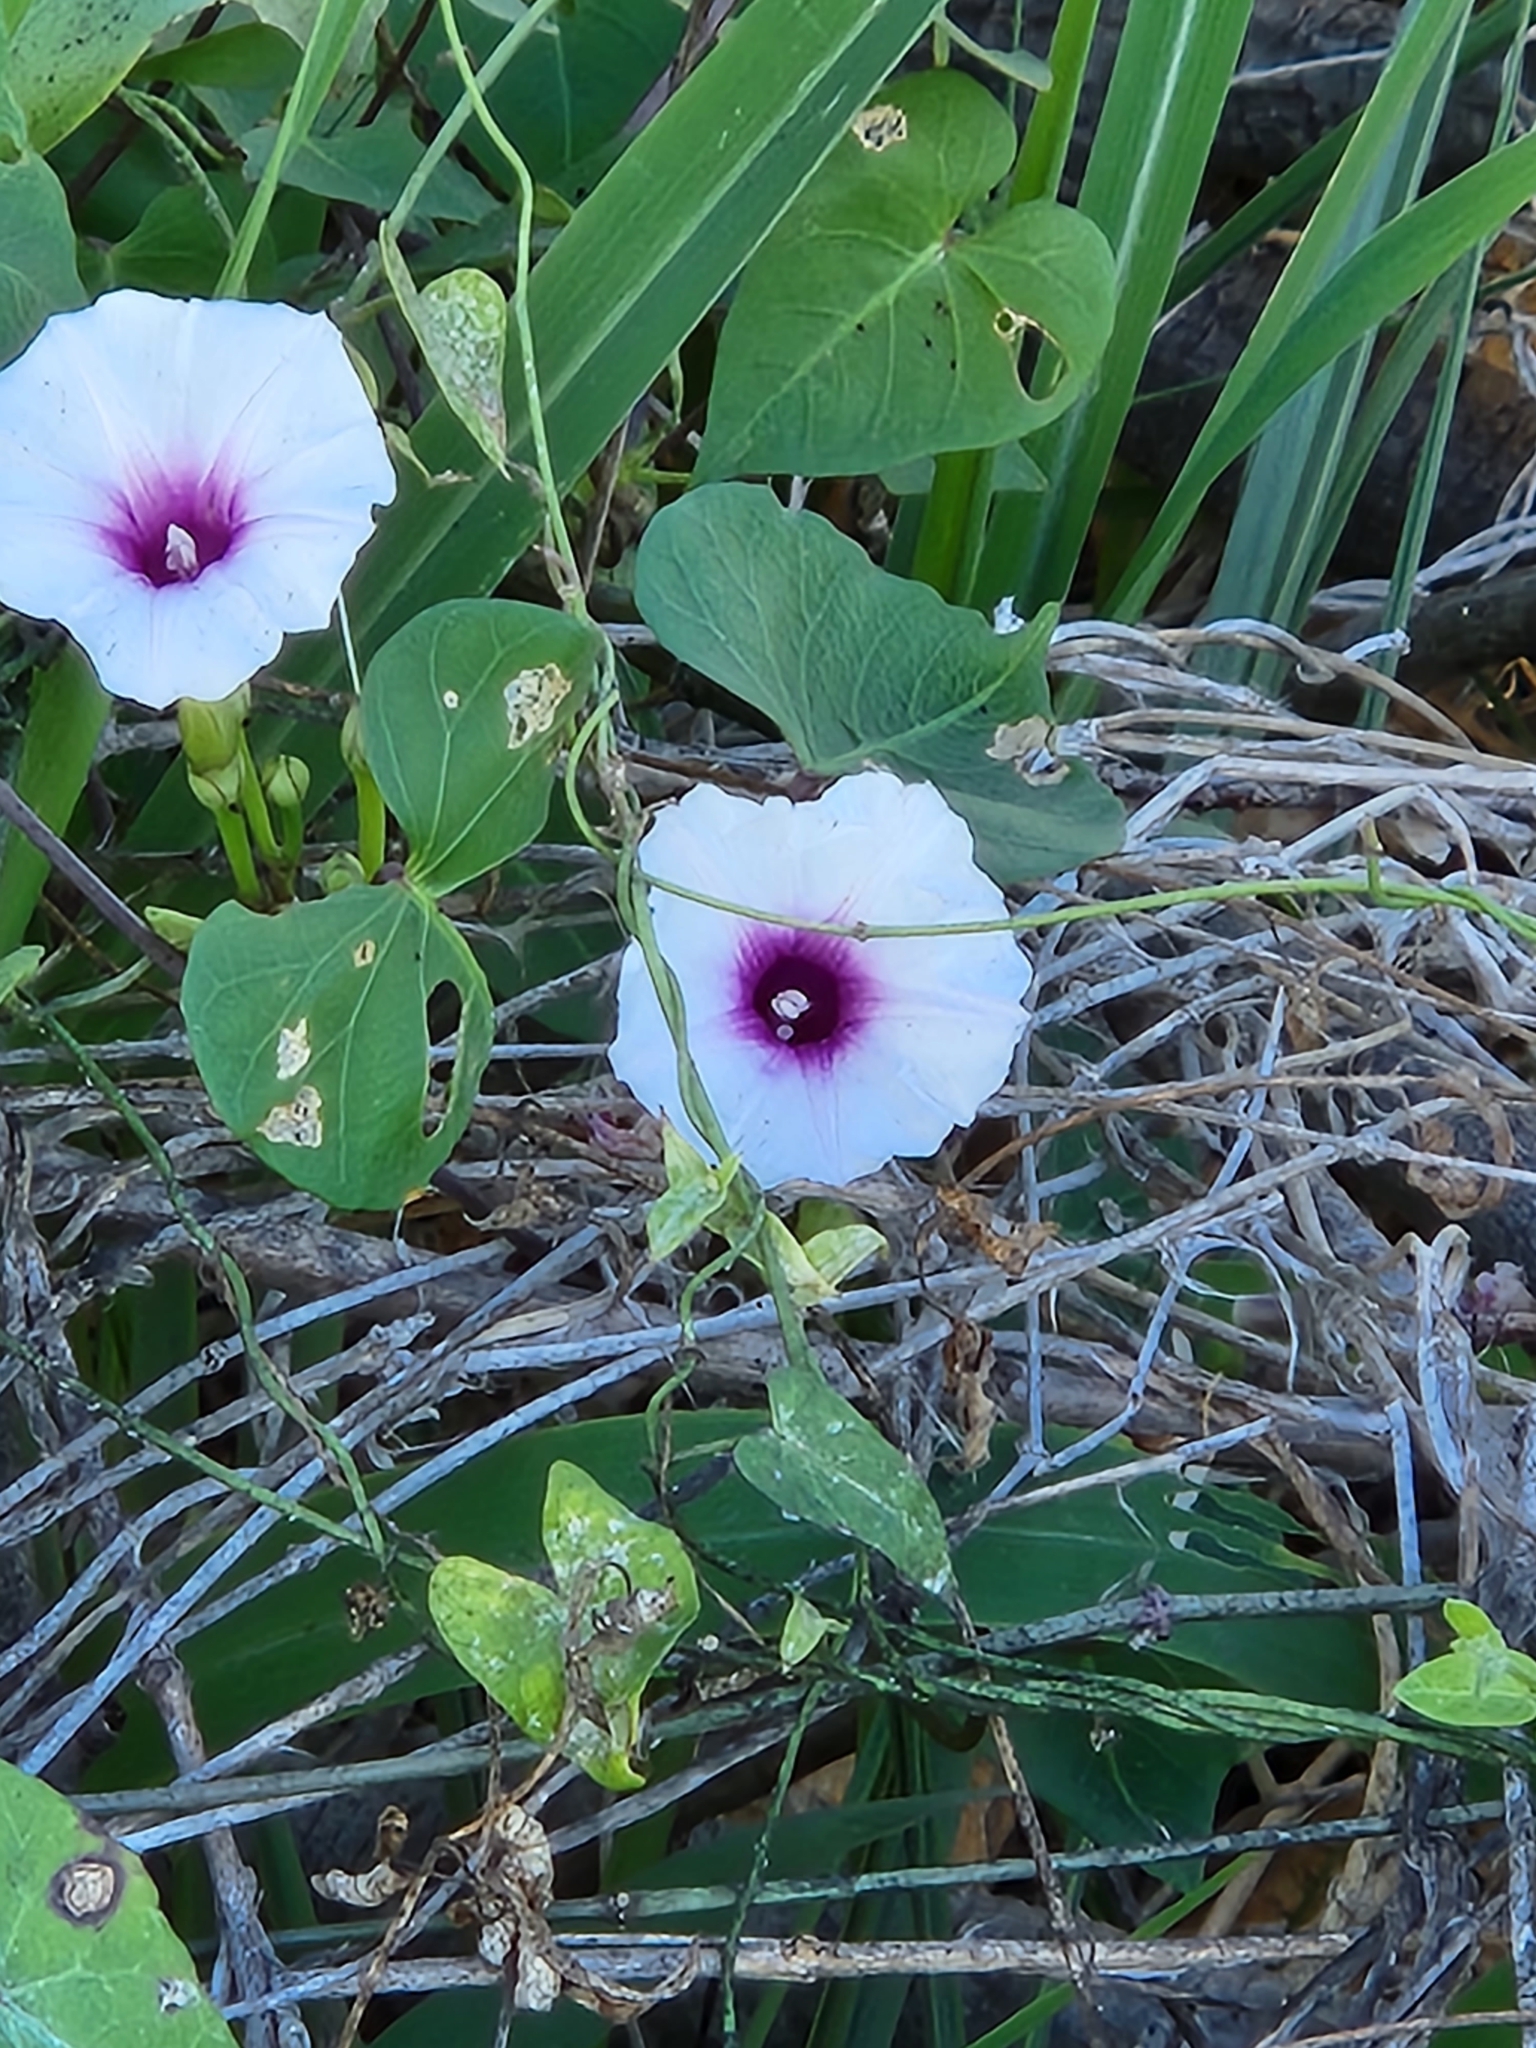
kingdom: Plantae
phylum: Tracheophyta
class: Magnoliopsida
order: Solanales
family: Convolvulaceae
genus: Ipomoea
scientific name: Ipomoea amnicola
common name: Redcenter morning-glory
